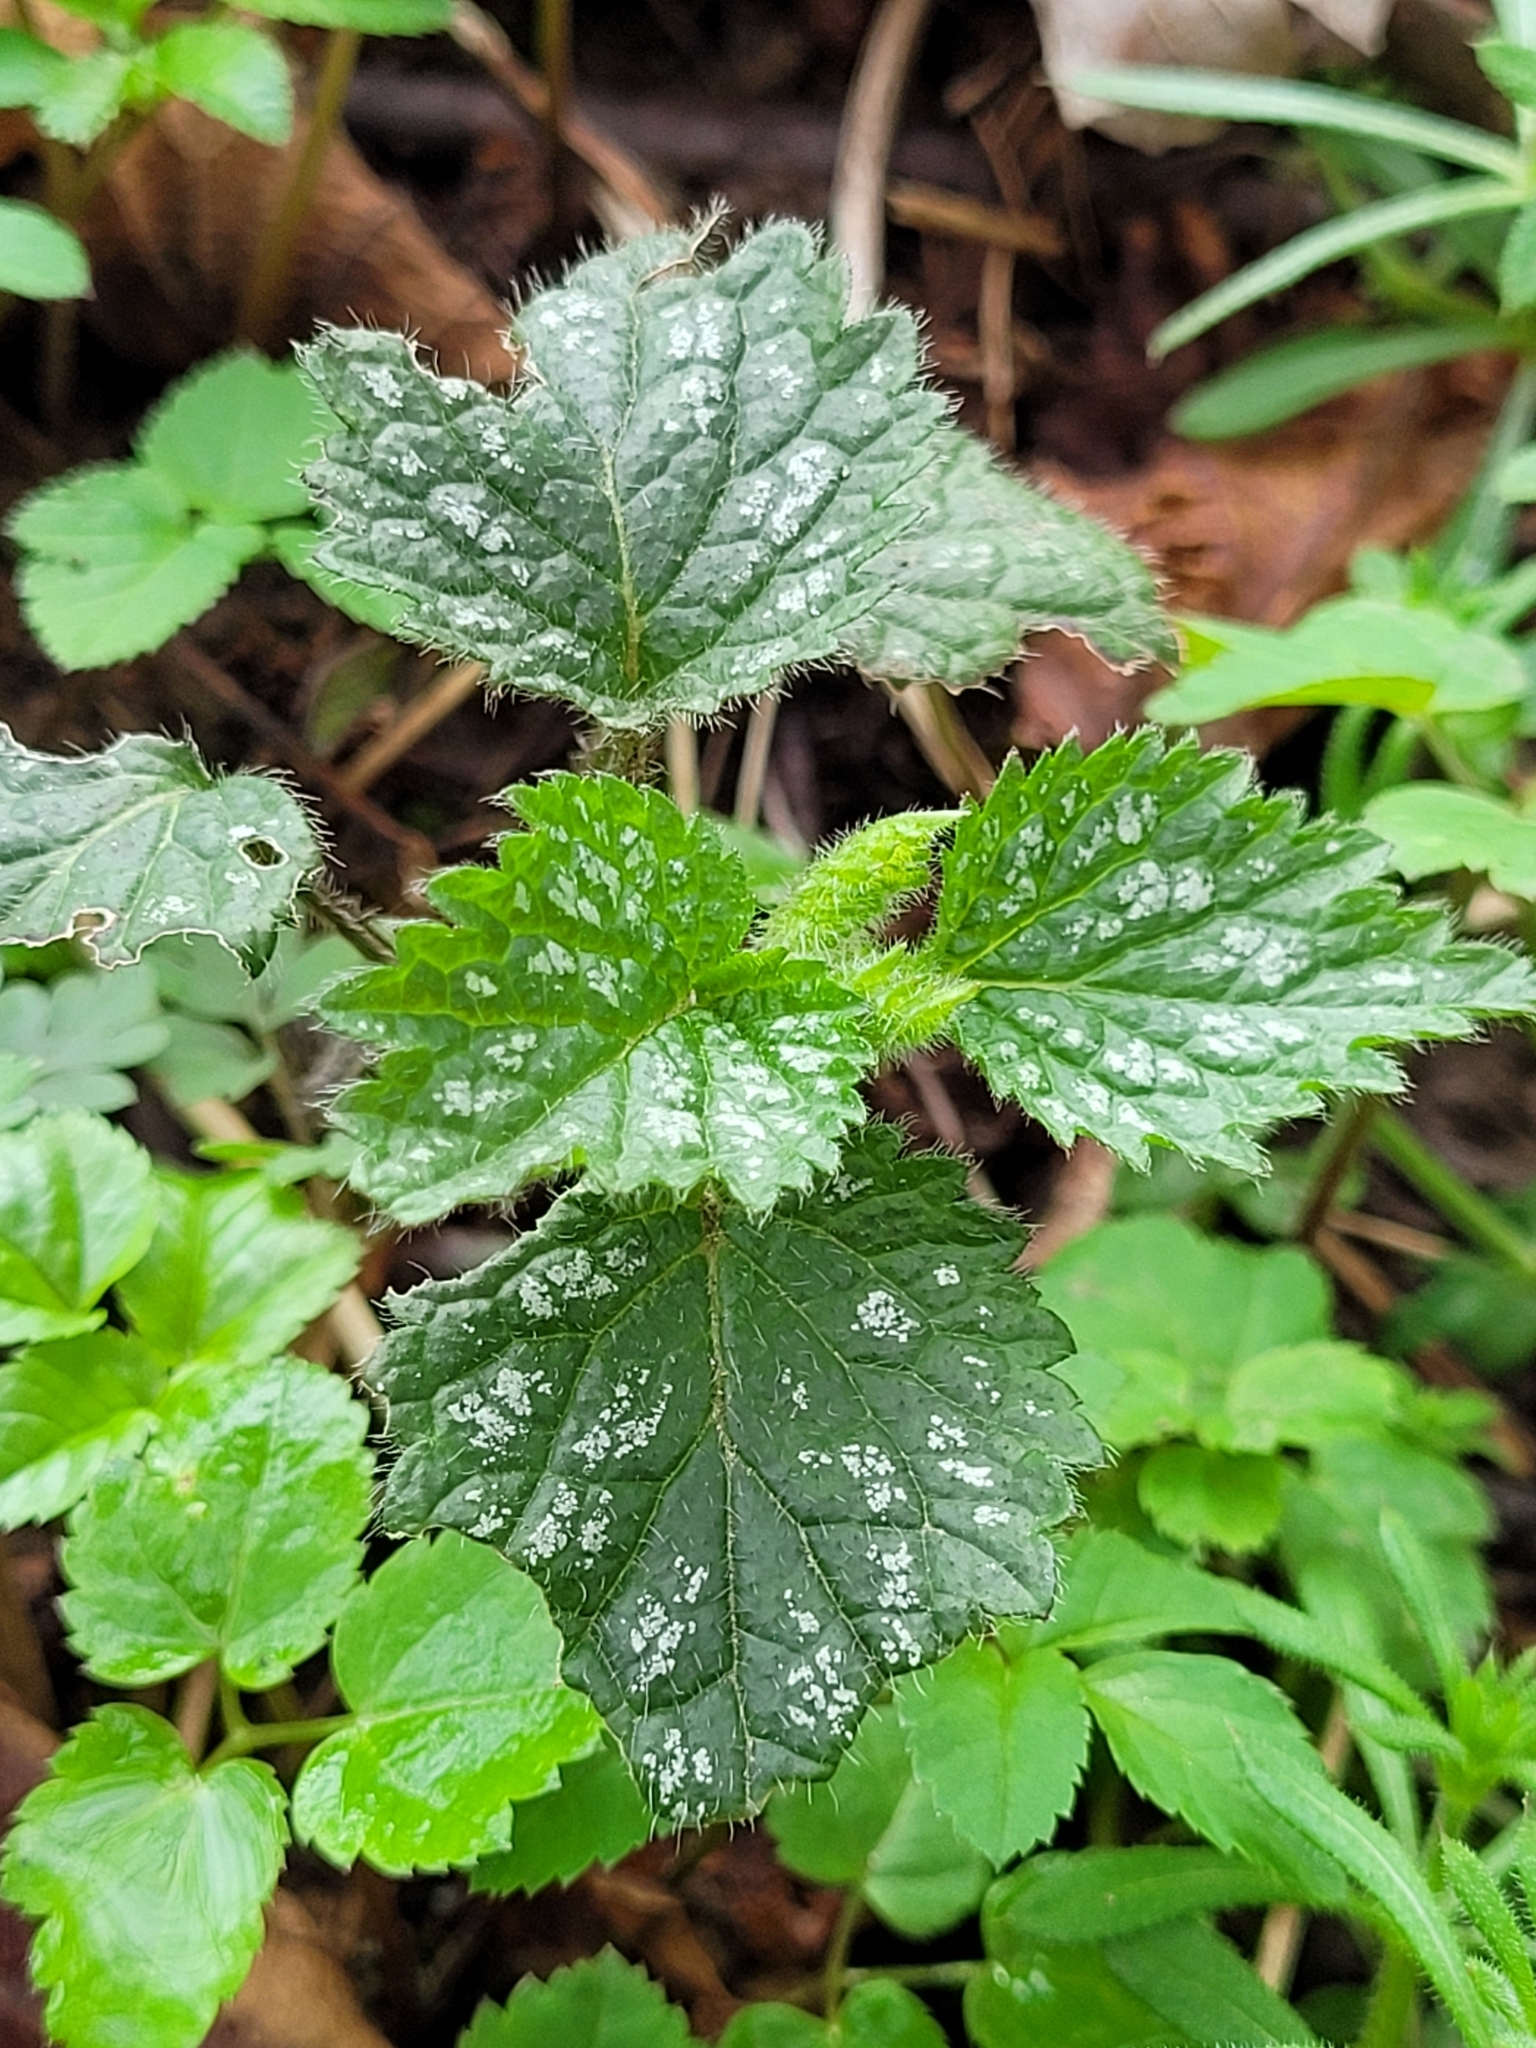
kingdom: Plantae
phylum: Tracheophyta
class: Magnoliopsida
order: Lamiales
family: Lamiaceae
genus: Lamium
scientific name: Lamium galeobdolon
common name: Yellow archangel
